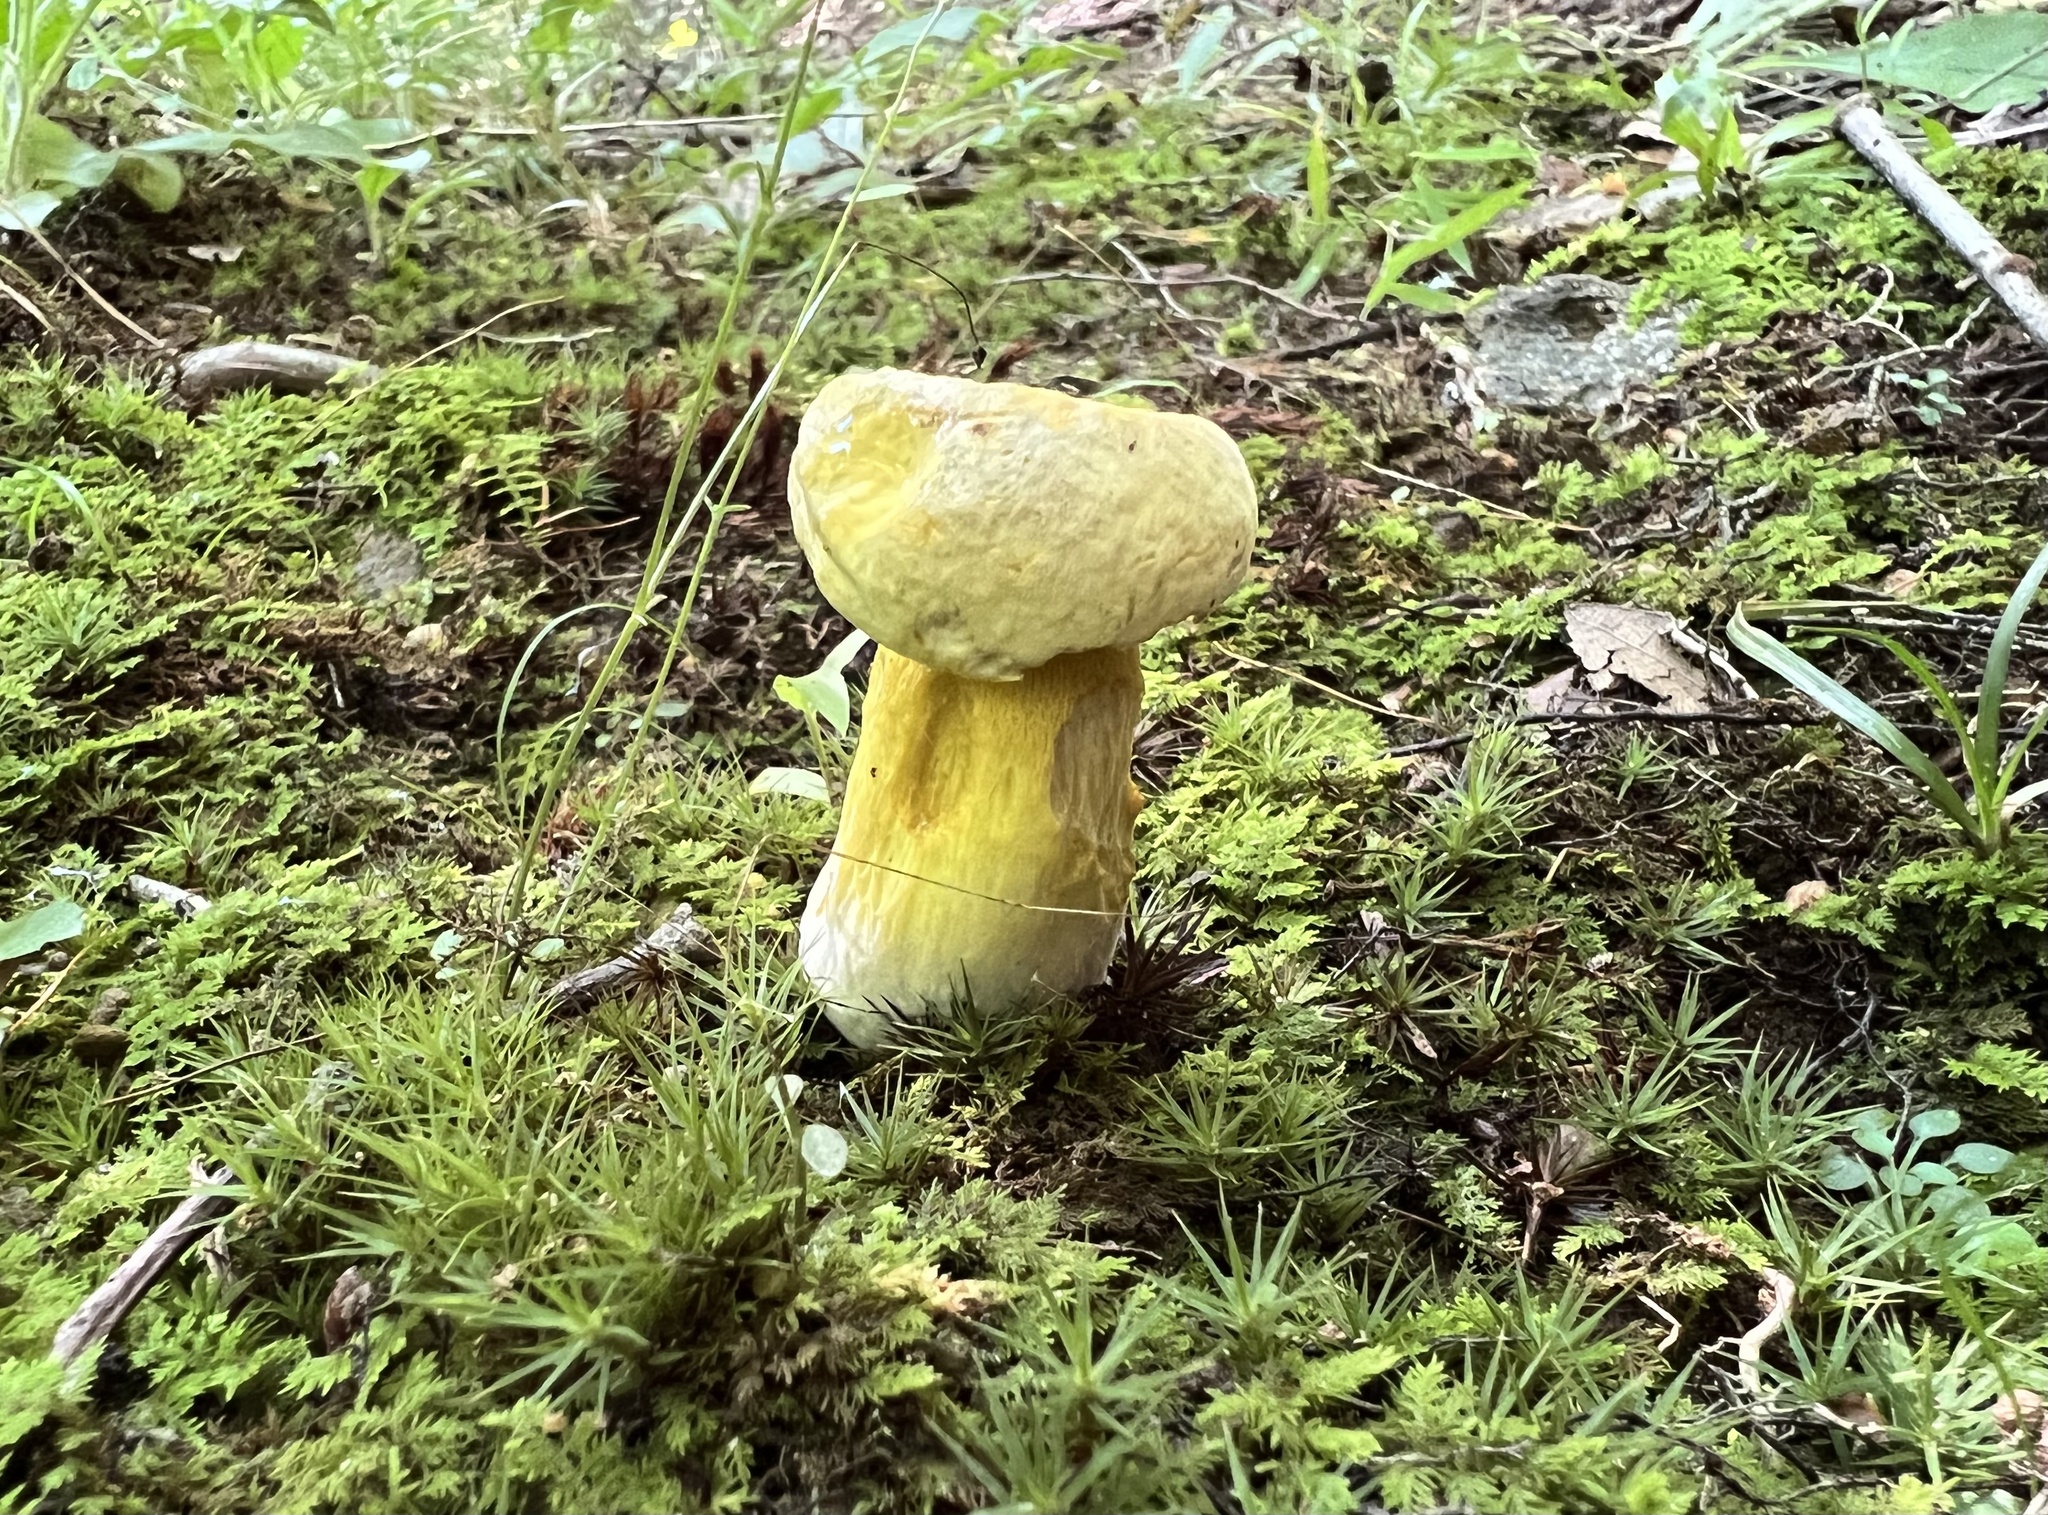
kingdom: Fungi
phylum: Basidiomycota
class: Agaricomycetes
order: Boletales
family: Boletaceae
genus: Retiboletus
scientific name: Retiboletus ornatipes
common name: Ornate-stalked bolete
